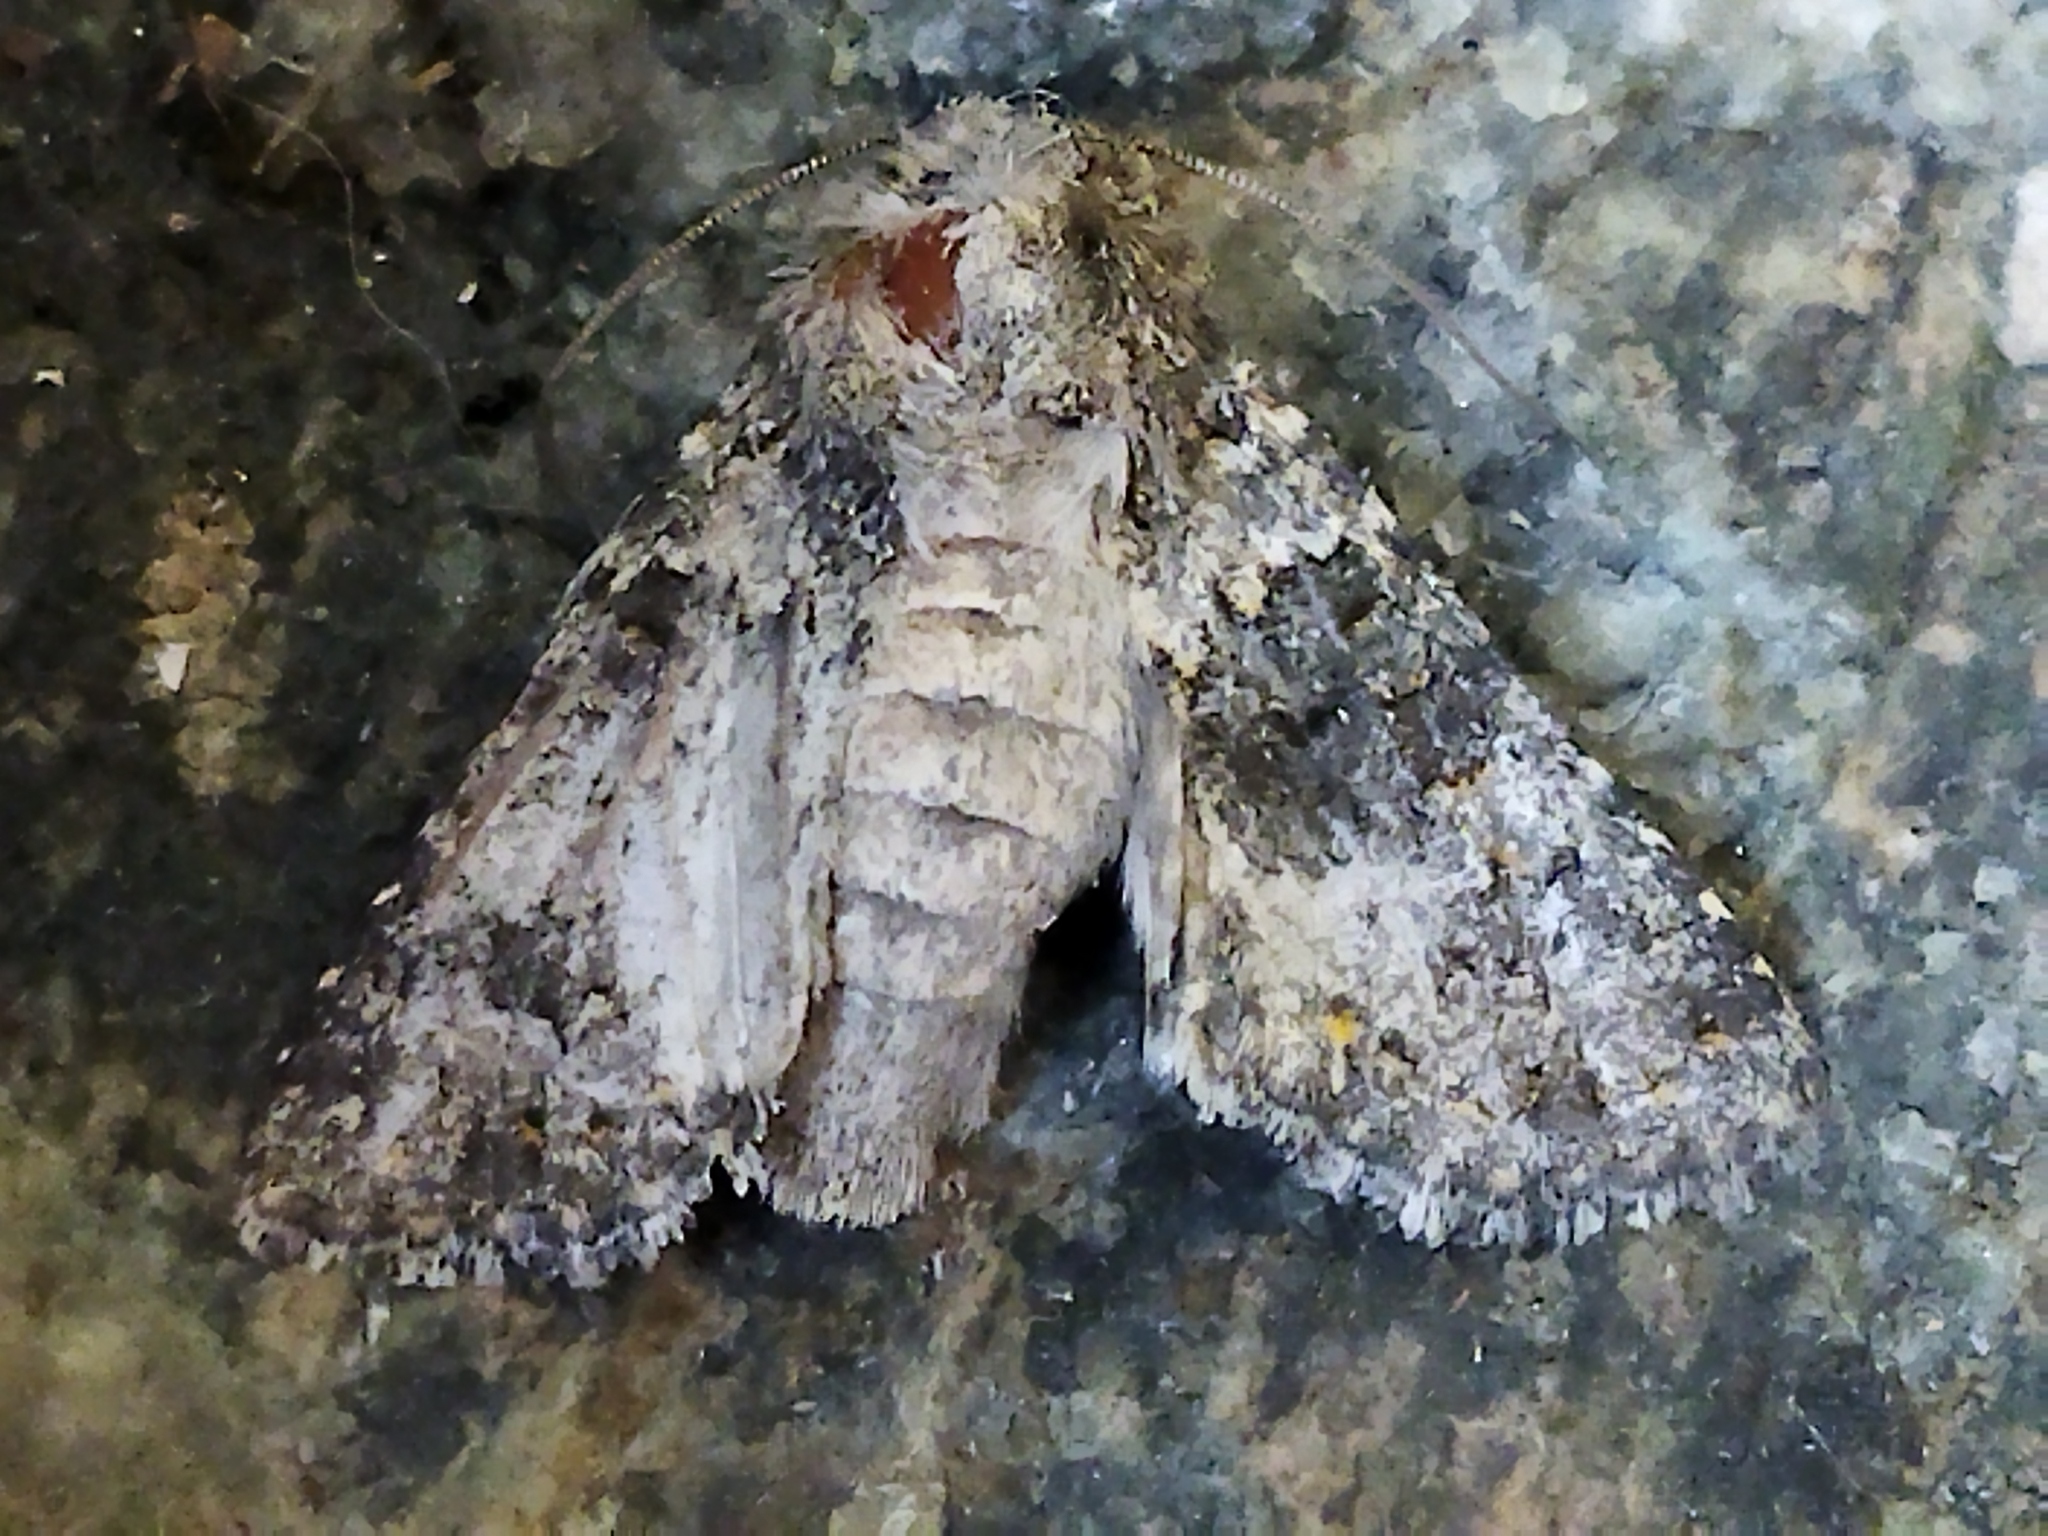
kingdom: Animalia
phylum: Arthropoda
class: Insecta
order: Lepidoptera
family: Noctuidae
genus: Hecatera
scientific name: Hecatera dysodea
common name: Small ranunculus
